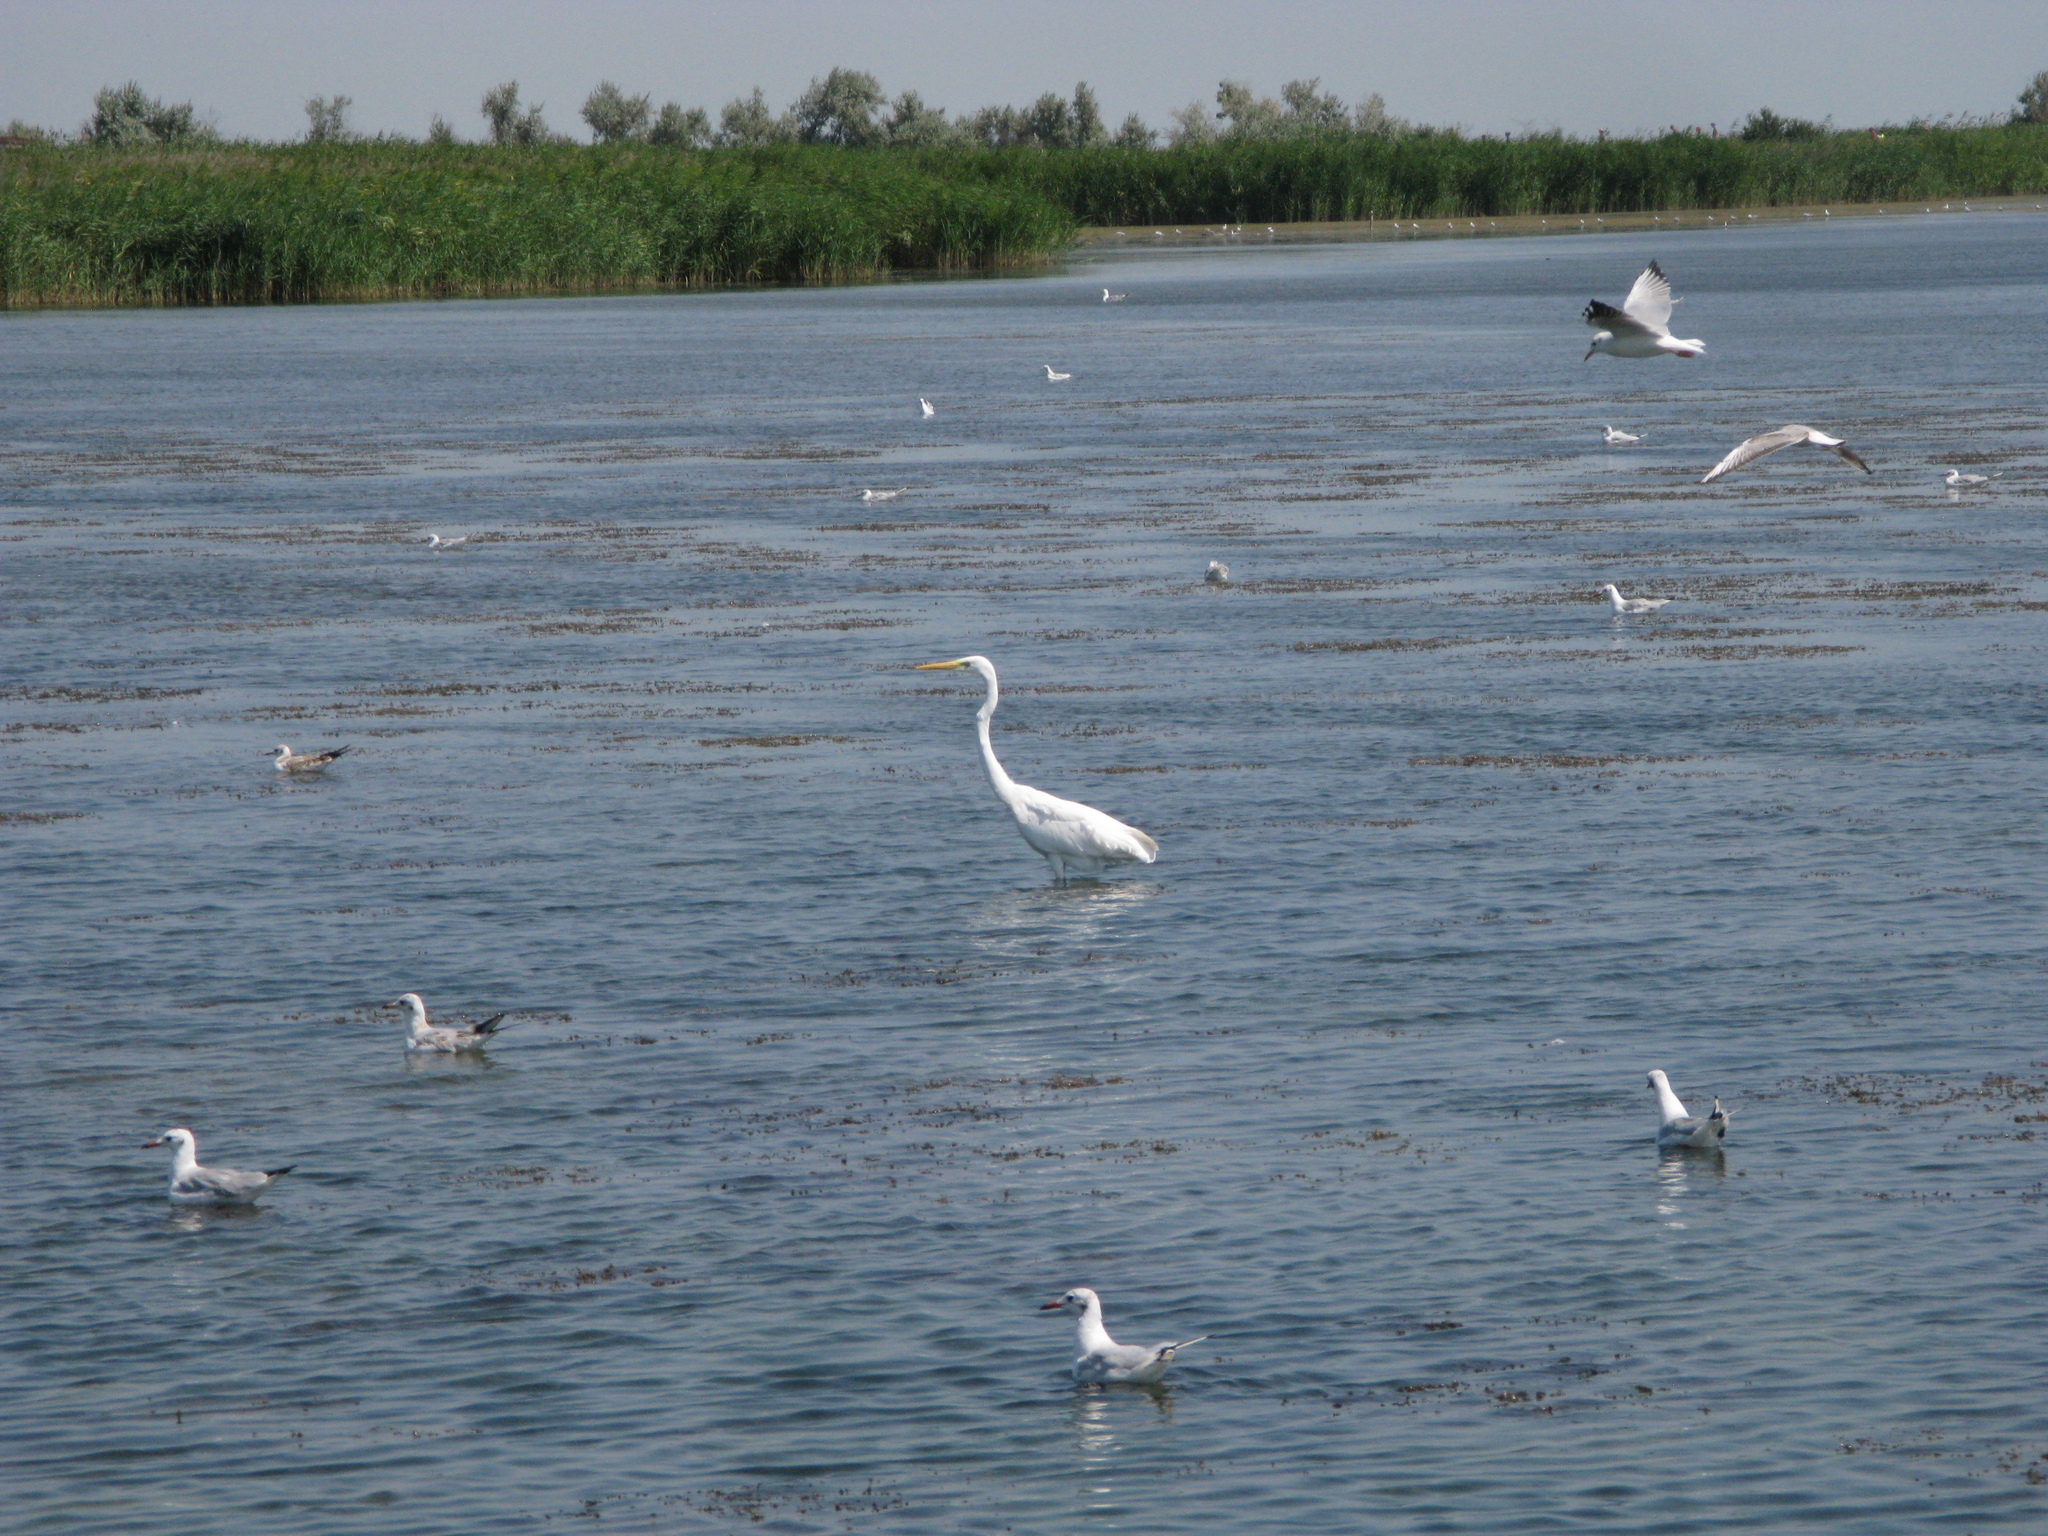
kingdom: Animalia
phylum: Chordata
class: Aves
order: Pelecaniformes
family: Ardeidae
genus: Ardea
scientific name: Ardea alba
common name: Great egret
